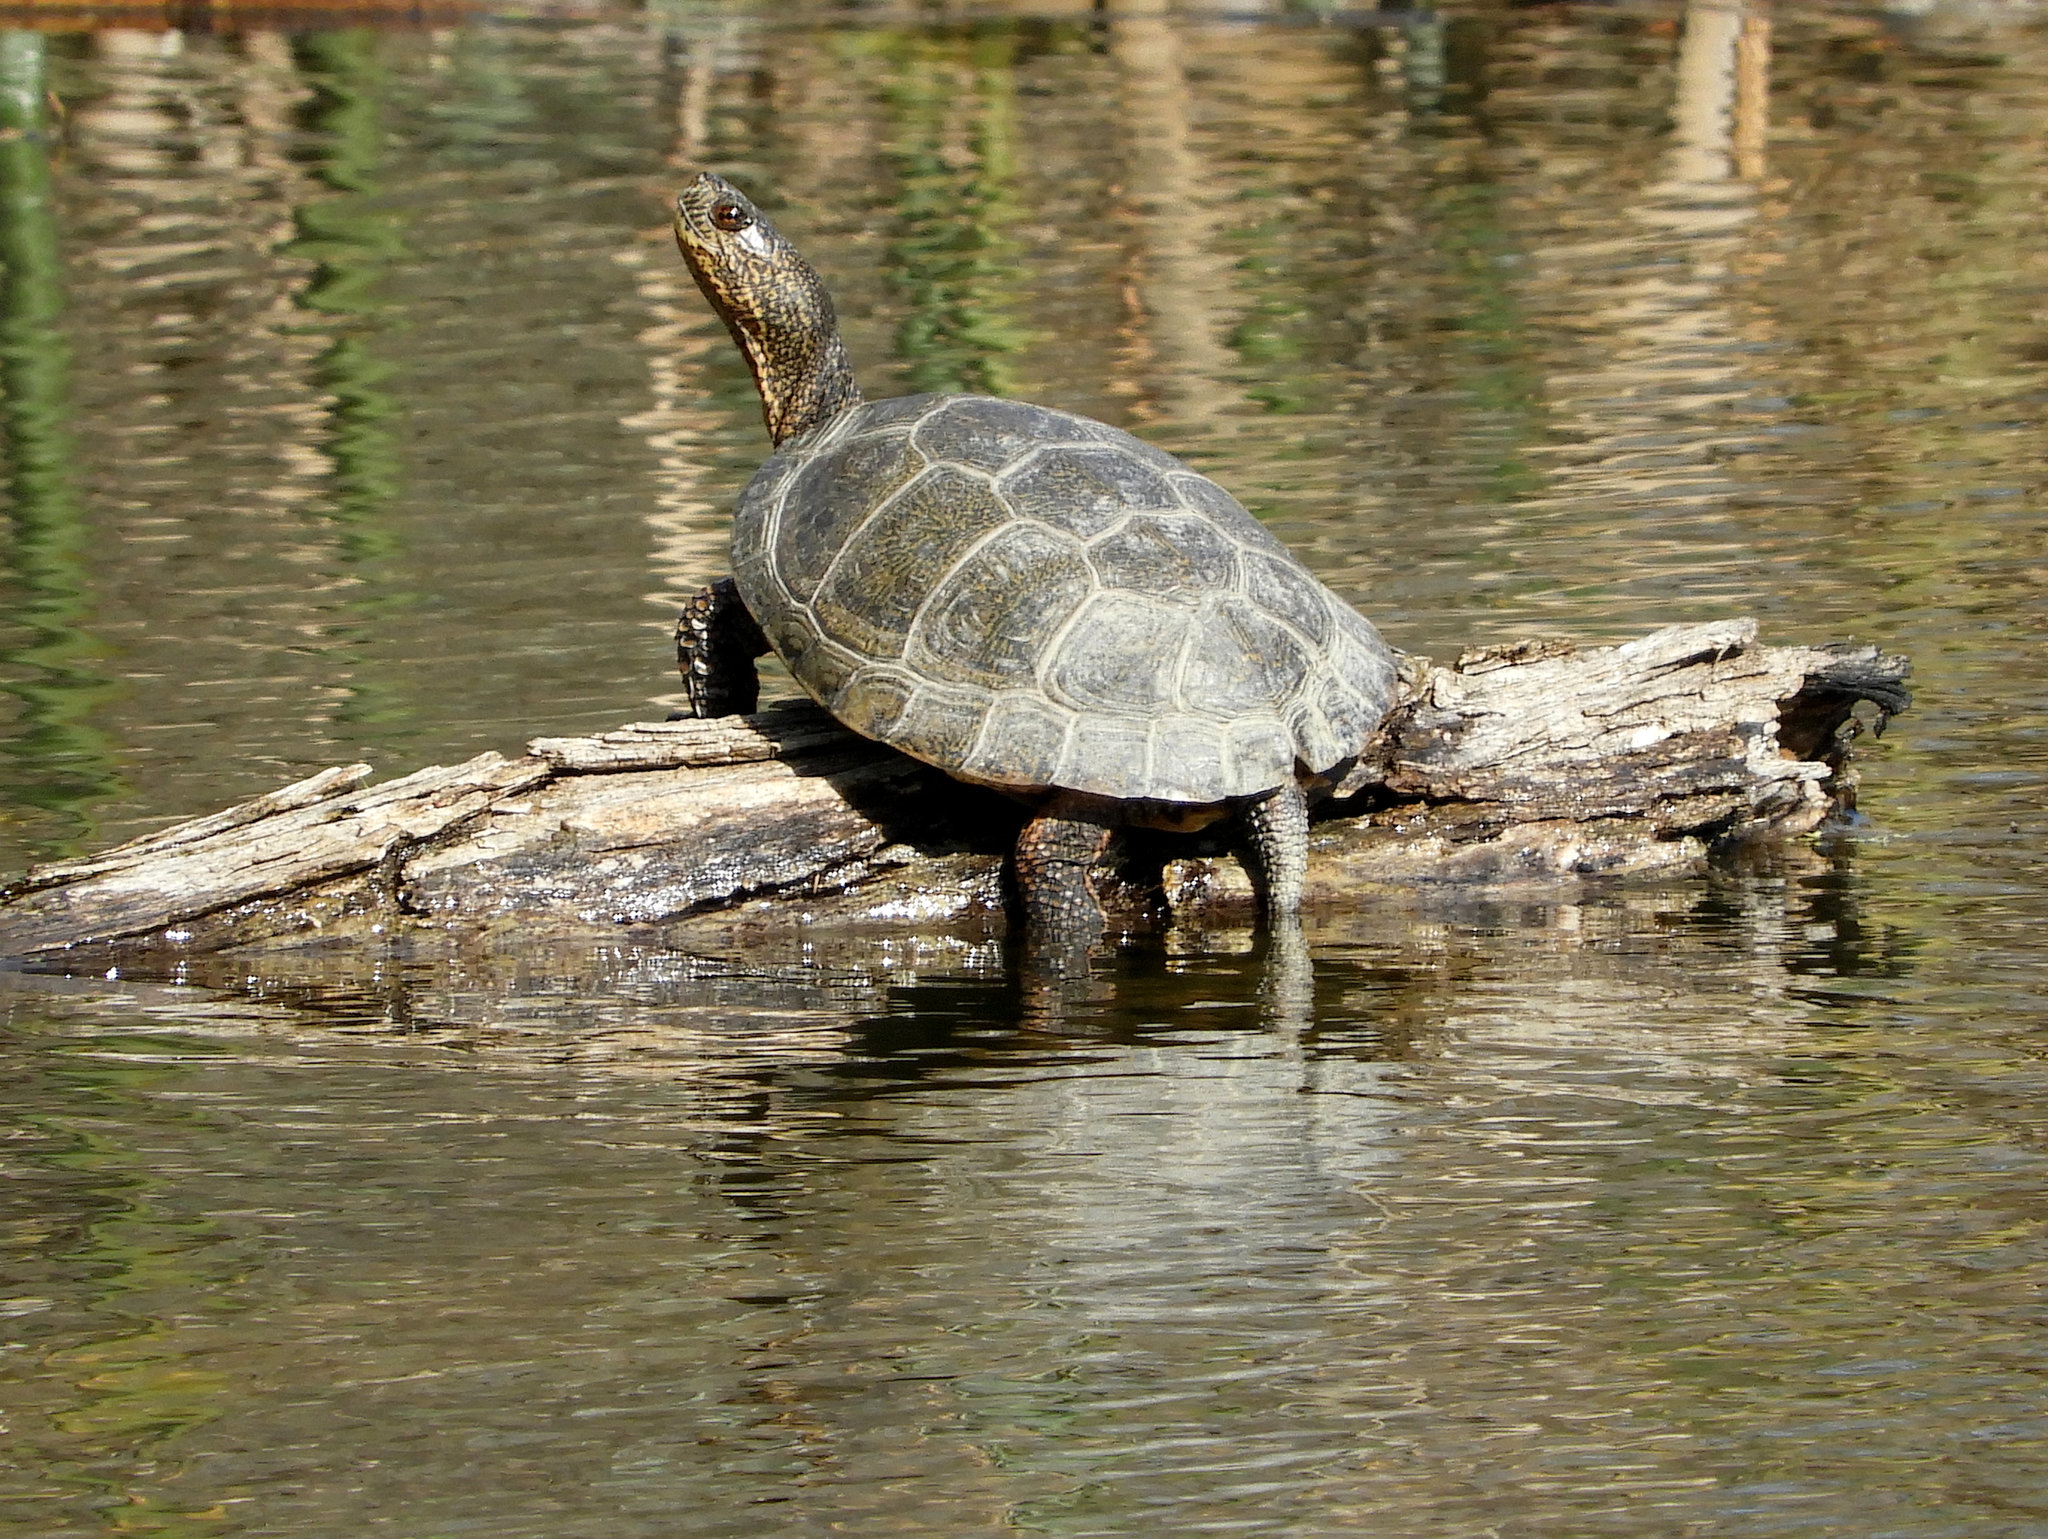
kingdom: Animalia
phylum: Chordata
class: Testudines
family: Emydidae
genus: Actinemys
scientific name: Actinemys marmorata
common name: Western pond turtle
